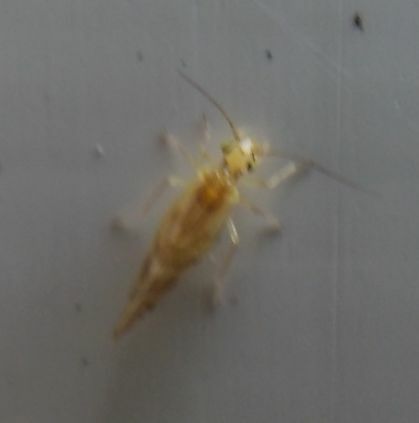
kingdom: Animalia
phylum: Arthropoda
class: Insecta
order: Psocodea
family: Paracaeciliidae
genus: Chilenocaecilius
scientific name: Chilenocaecilius ornatipennis
